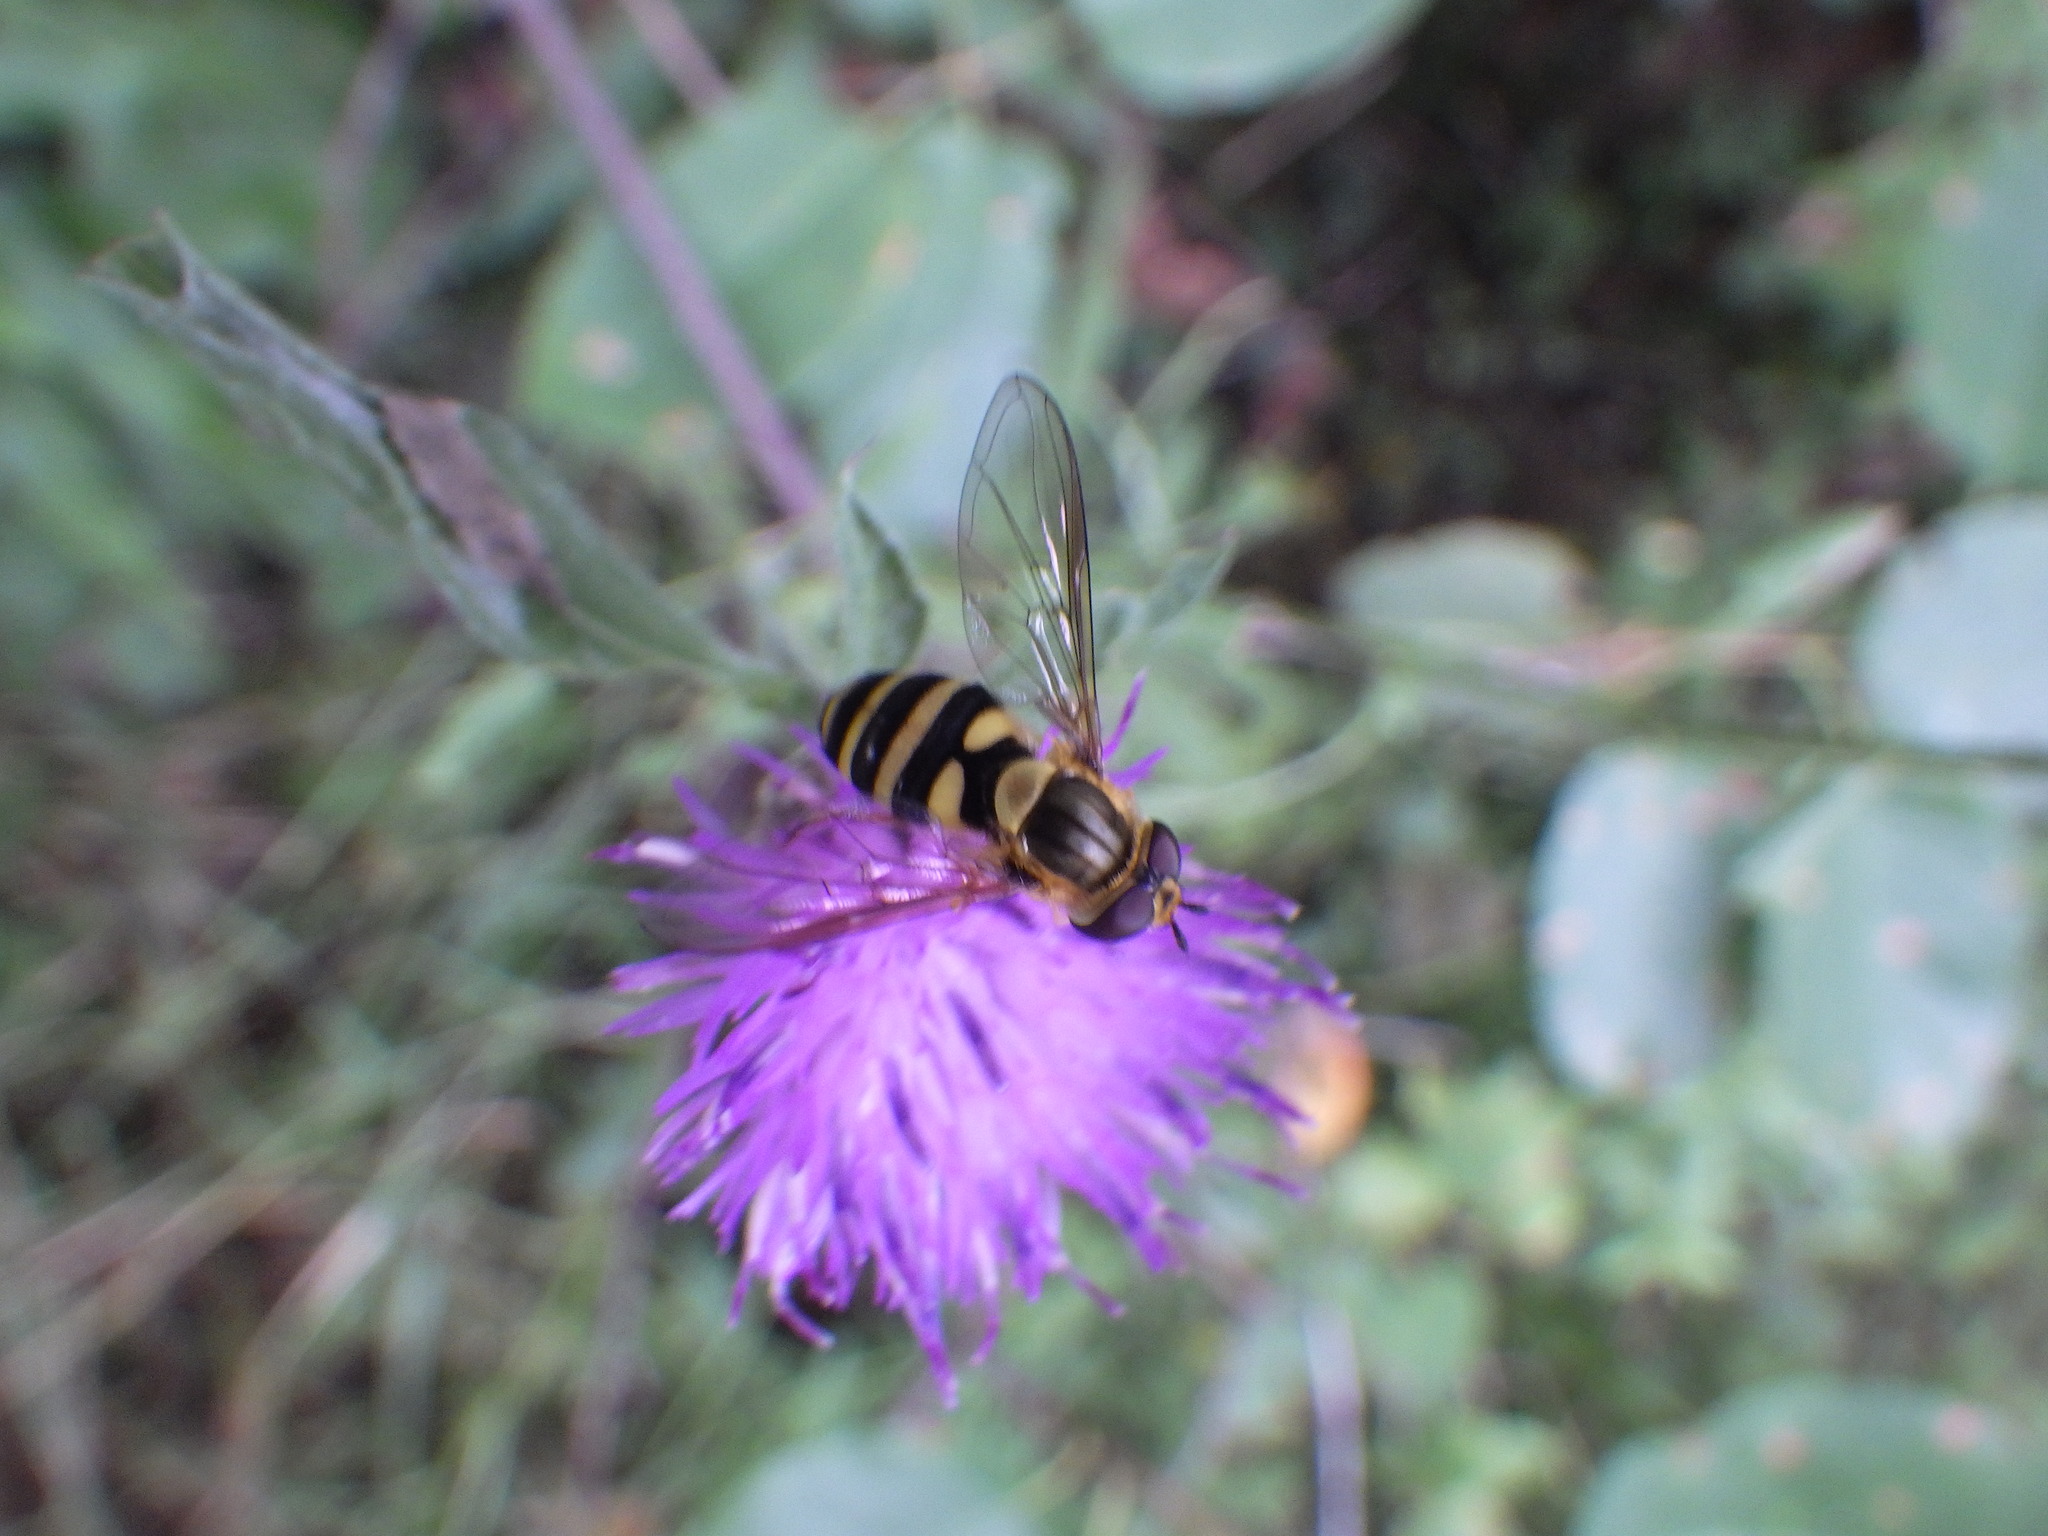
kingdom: Animalia
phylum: Arthropoda
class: Insecta
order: Diptera
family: Syrphidae
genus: Syrphus
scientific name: Syrphus knabi
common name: Eastern flower fly
